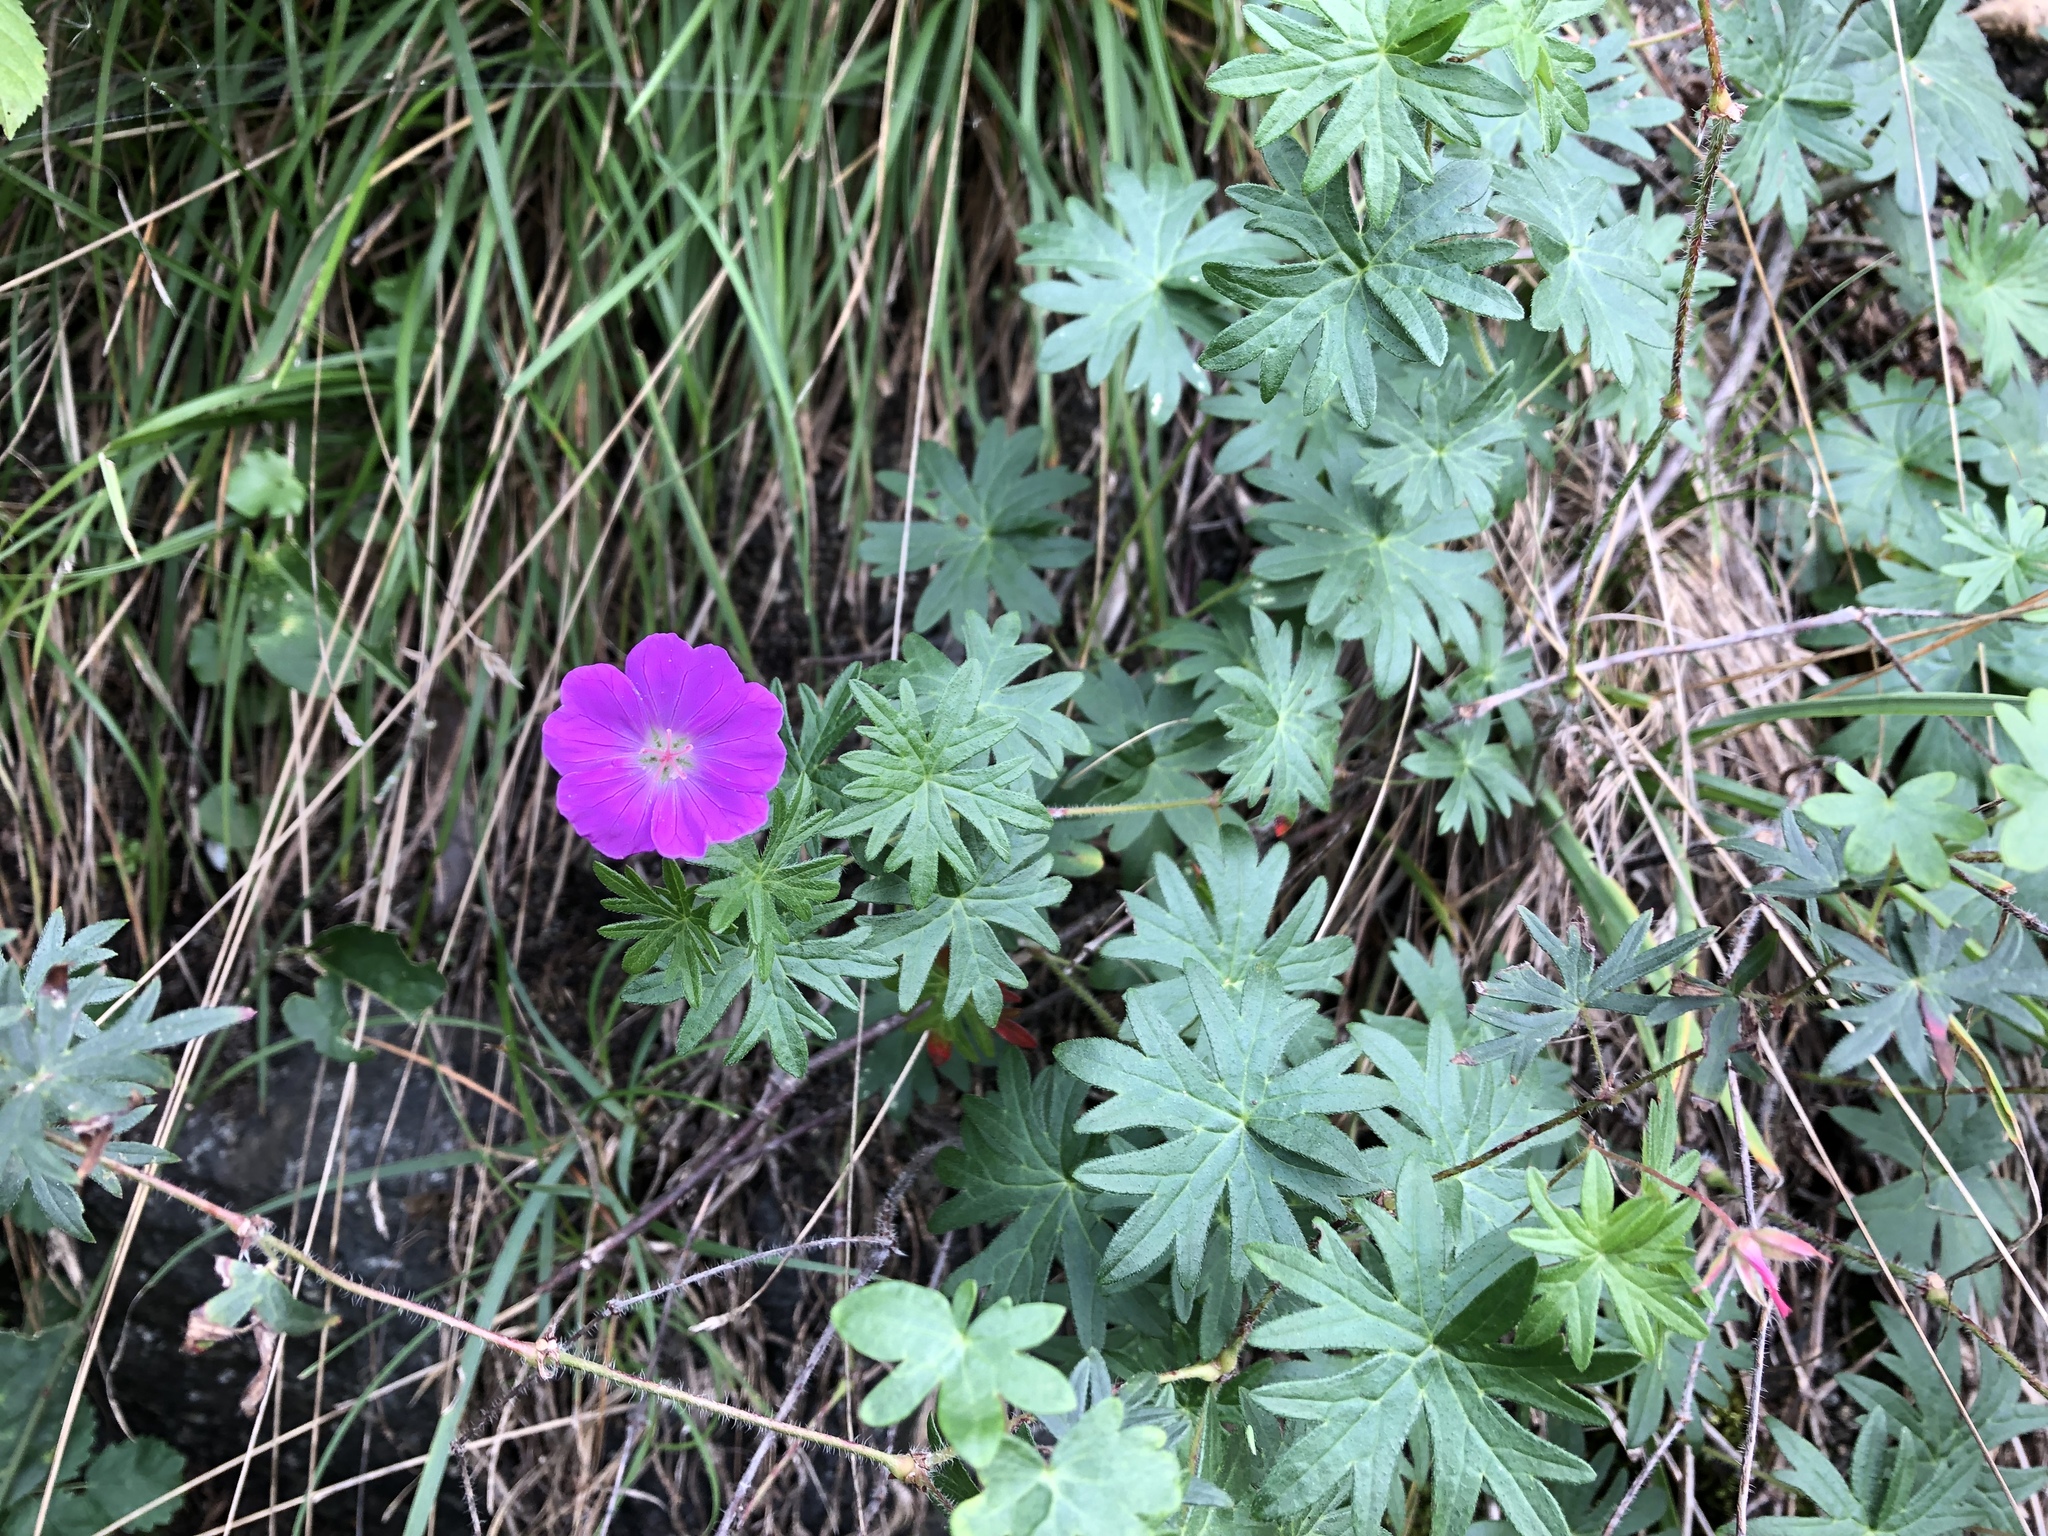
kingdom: Plantae
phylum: Tracheophyta
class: Magnoliopsida
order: Geraniales
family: Geraniaceae
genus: Geranium
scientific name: Geranium sanguineum
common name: Bloody crane's-bill
